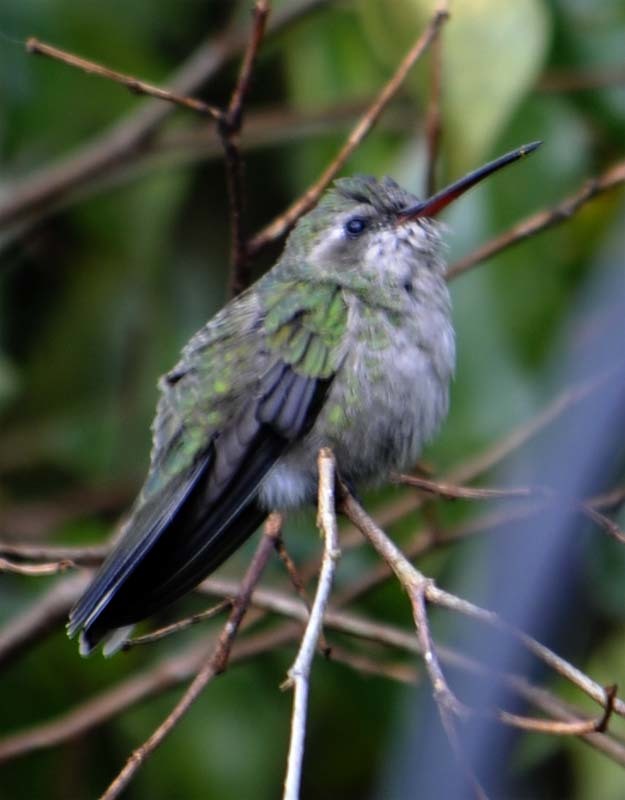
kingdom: Animalia
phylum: Chordata
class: Aves
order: Apodiformes
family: Trochilidae
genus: Cynanthus
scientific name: Cynanthus latirostris
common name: Broad-billed hummingbird
